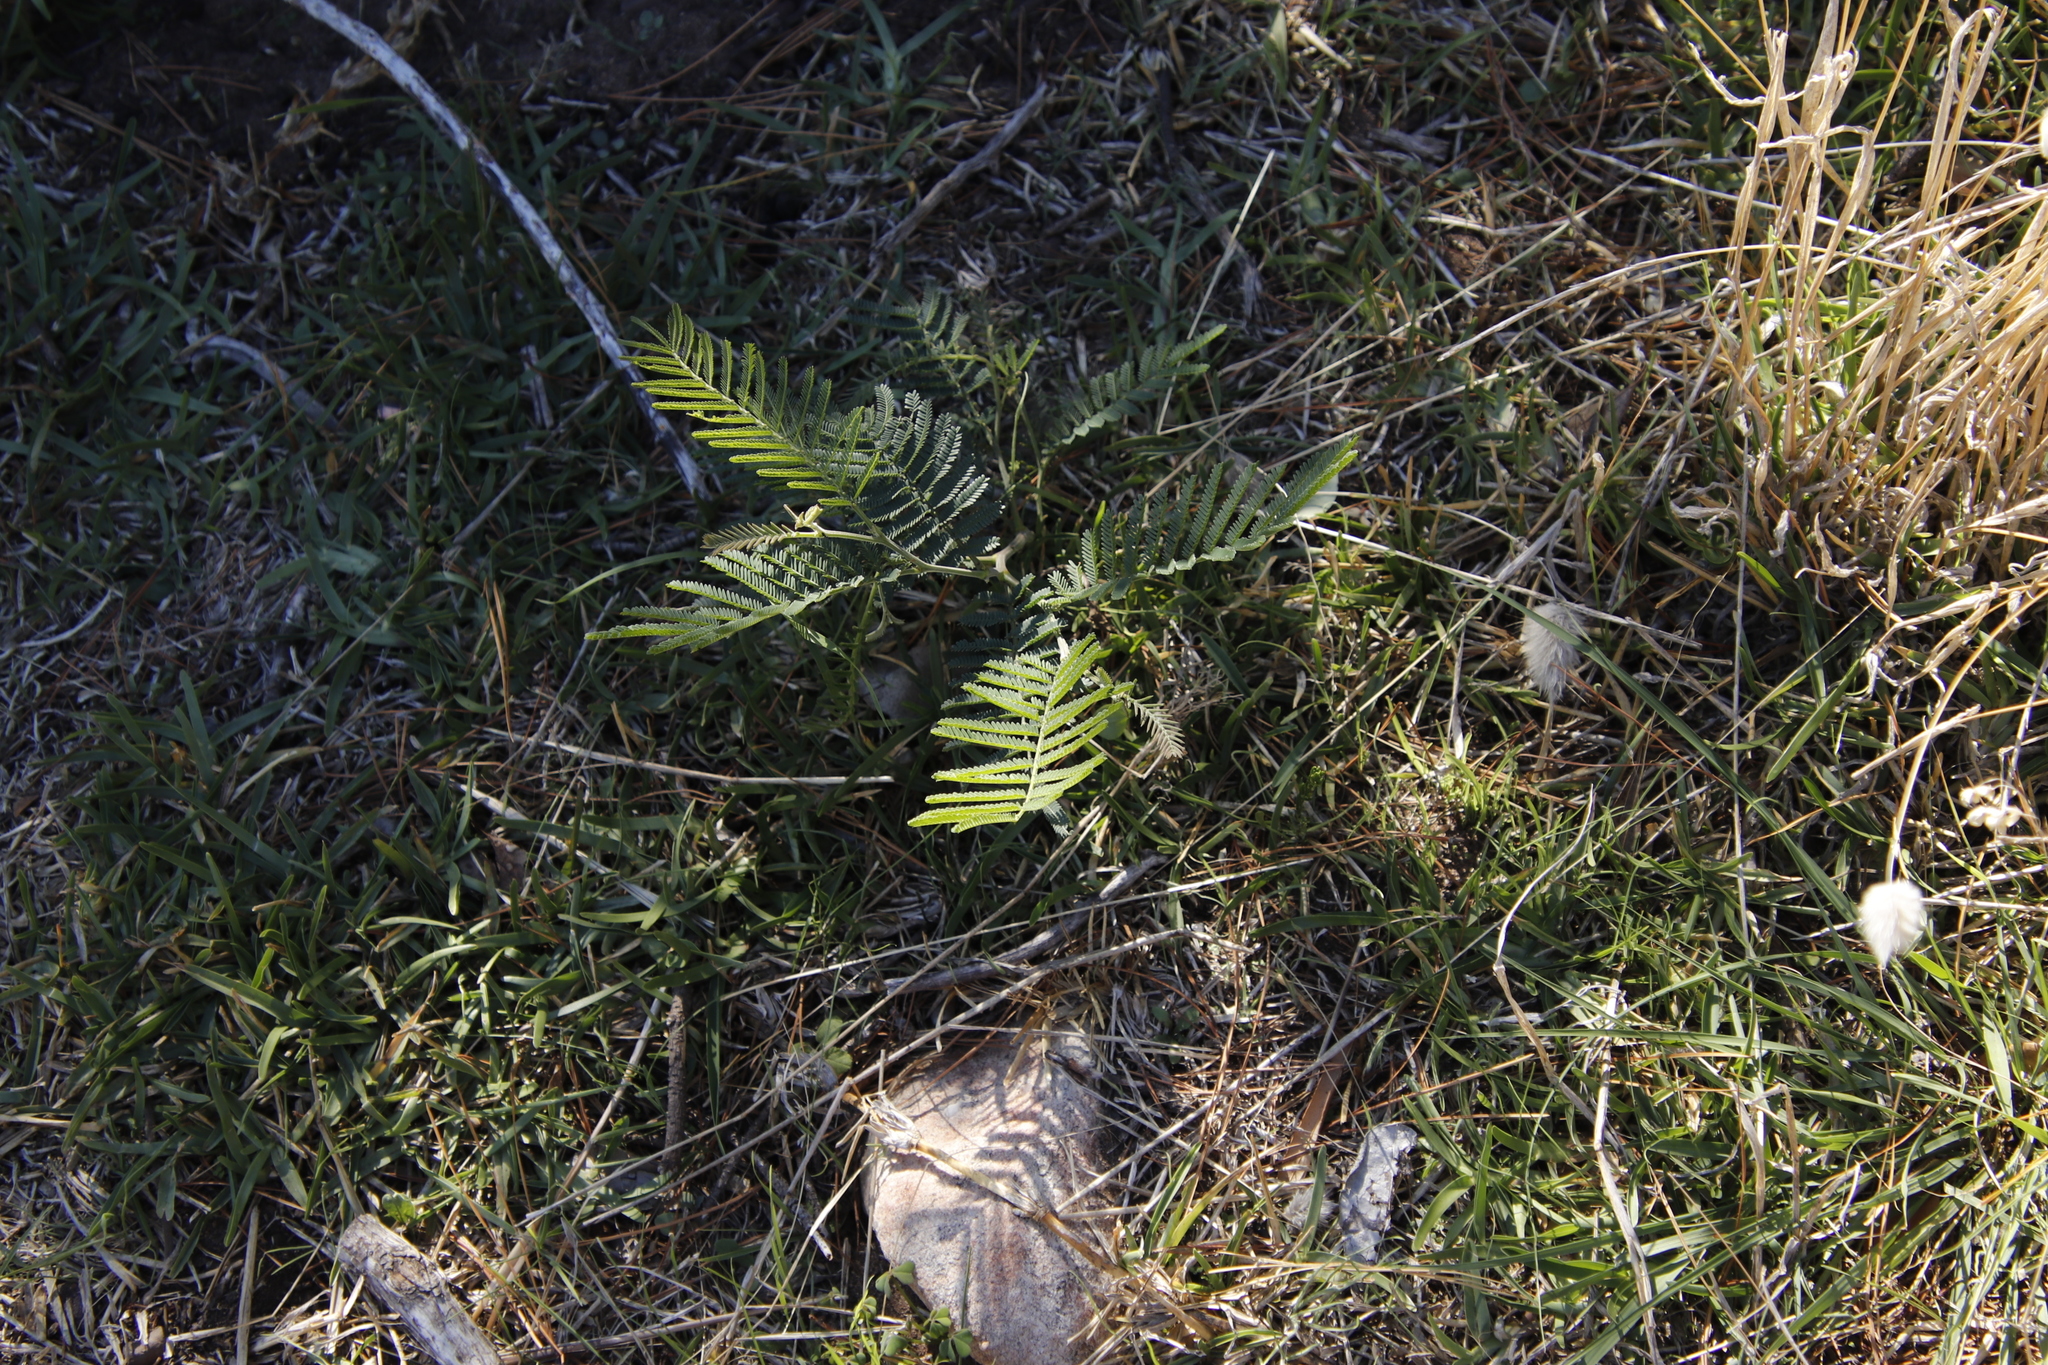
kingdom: Plantae
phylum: Tracheophyta
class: Magnoliopsida
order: Fabales
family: Fabaceae
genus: Acacia
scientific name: Acacia mearnsii
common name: Black wattle
